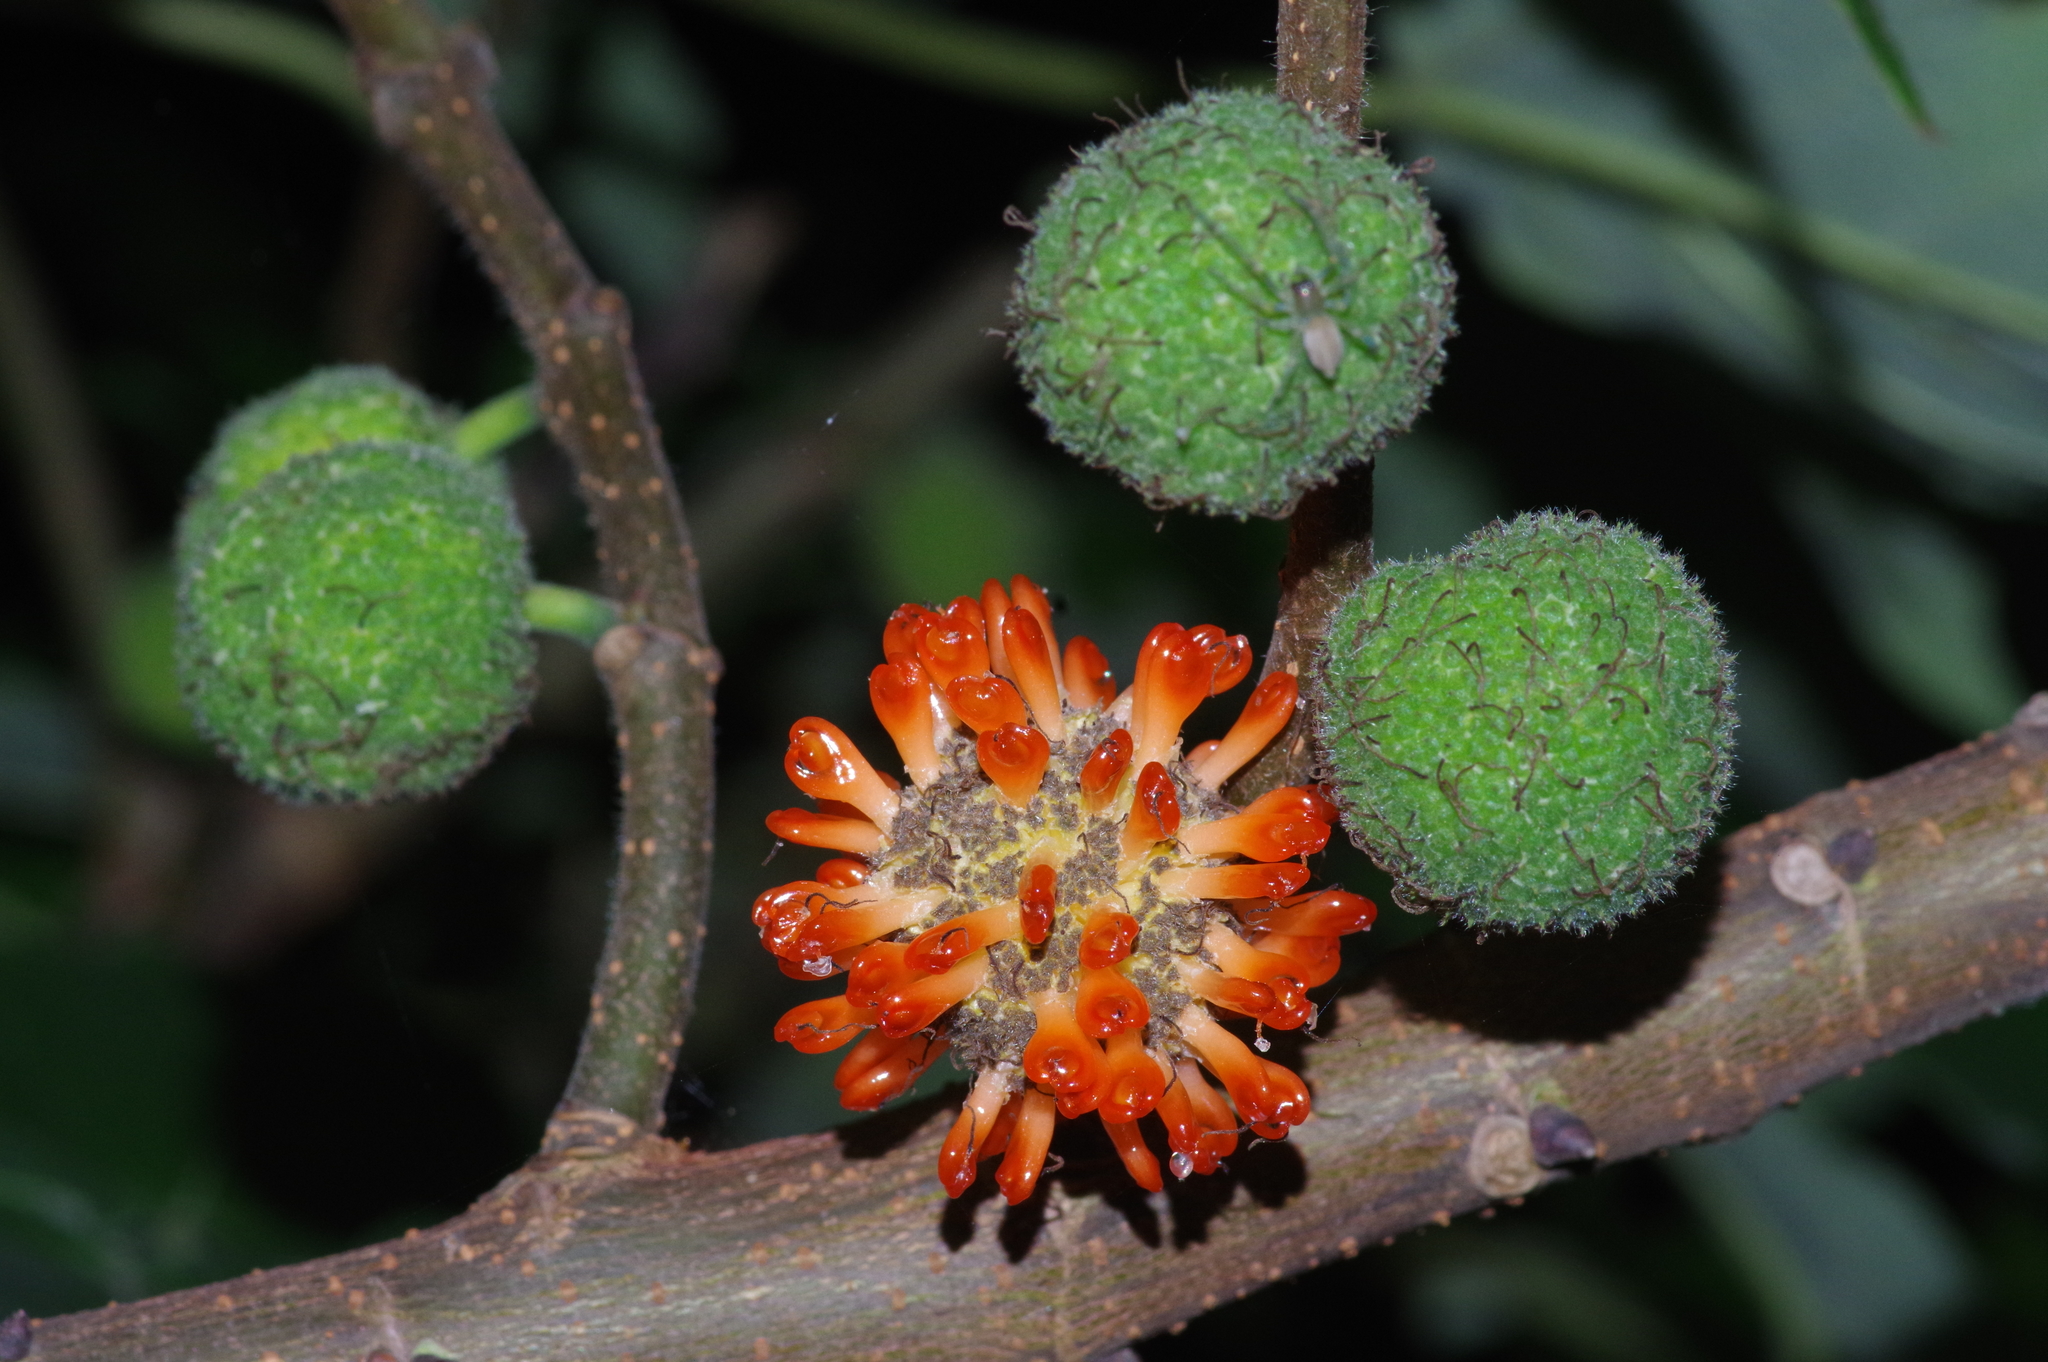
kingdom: Plantae
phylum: Tracheophyta
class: Magnoliopsida
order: Rosales
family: Moraceae
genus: Broussonetia
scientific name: Broussonetia papyrifera
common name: Paper mulberry
